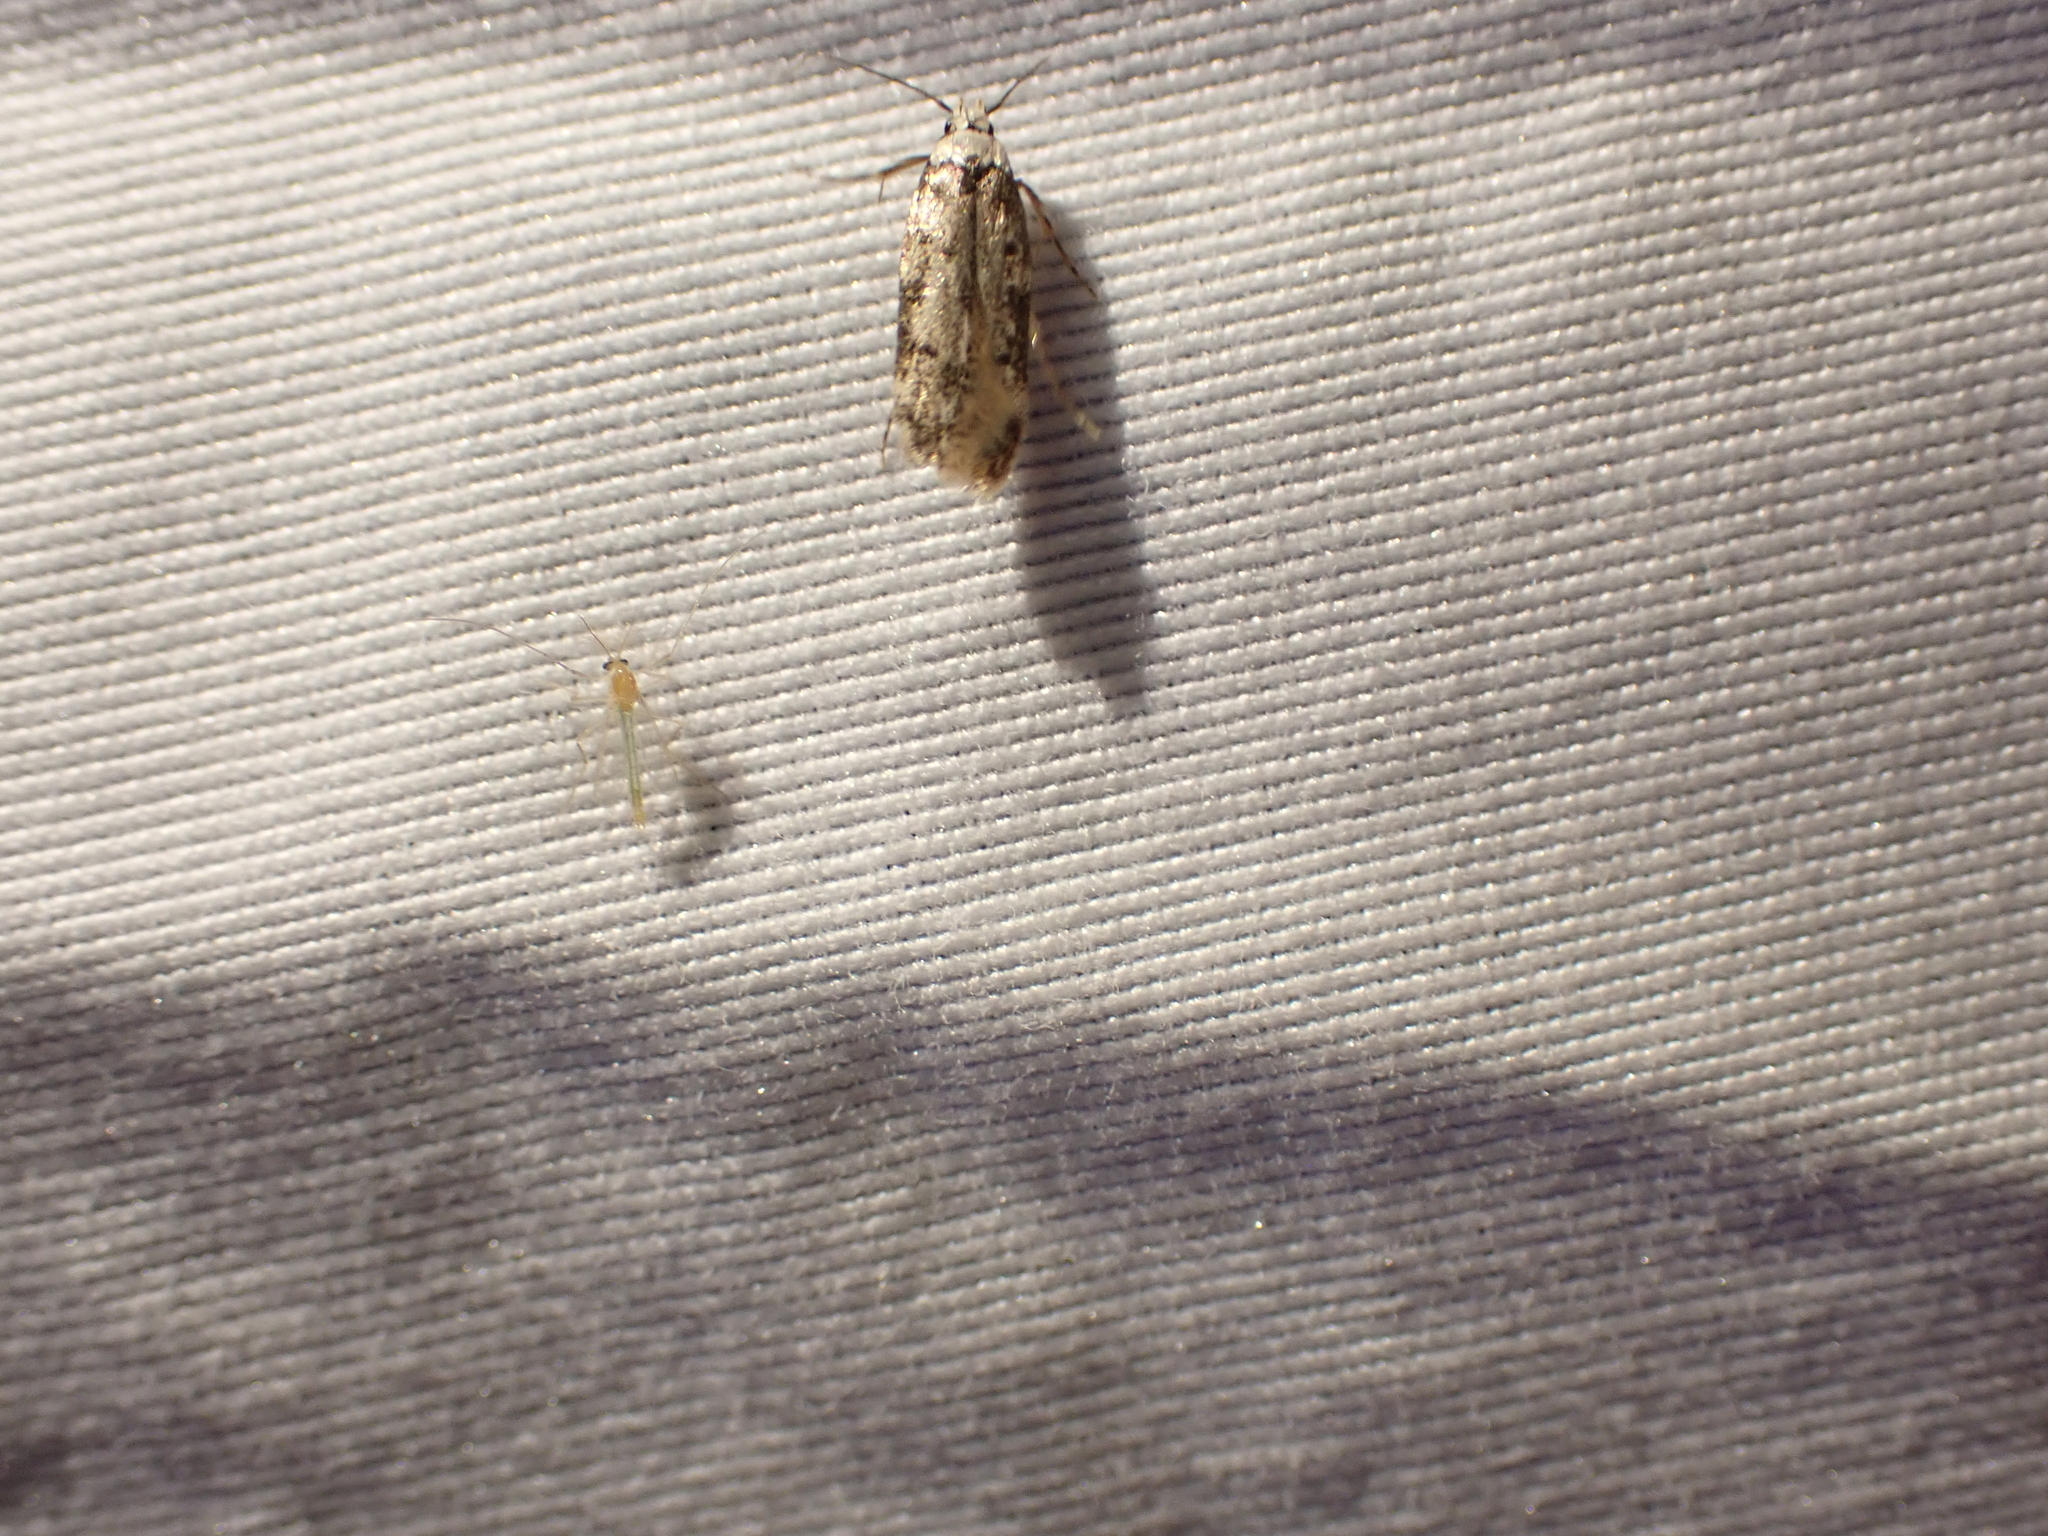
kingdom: Animalia
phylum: Arthropoda
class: Insecta
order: Lepidoptera
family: Oecophoridae
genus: Endrosis
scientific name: Endrosis sarcitrella
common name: White-shouldered house moth
